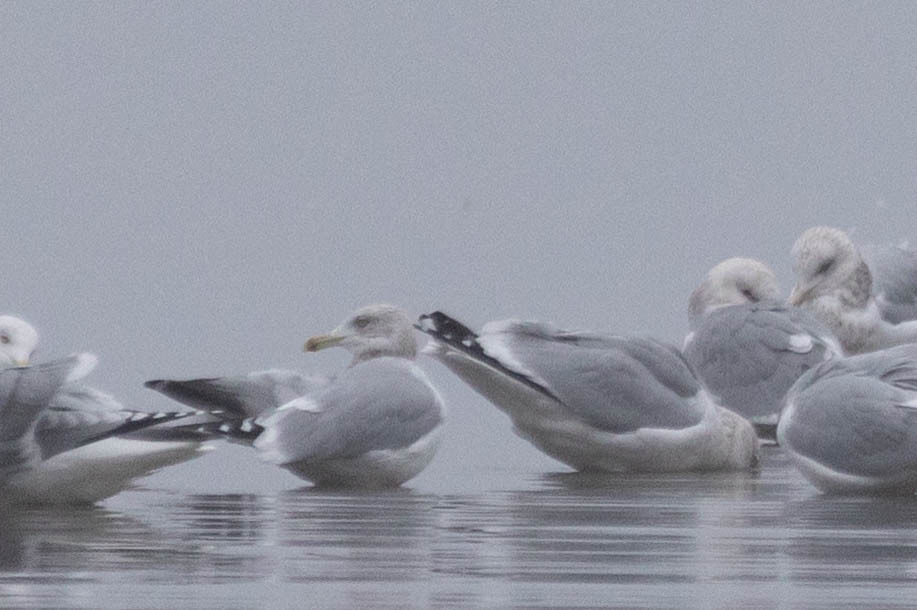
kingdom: Animalia
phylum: Chordata
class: Aves
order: Charadriiformes
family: Laridae
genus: Larus
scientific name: Larus argentatus
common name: Herring gull
